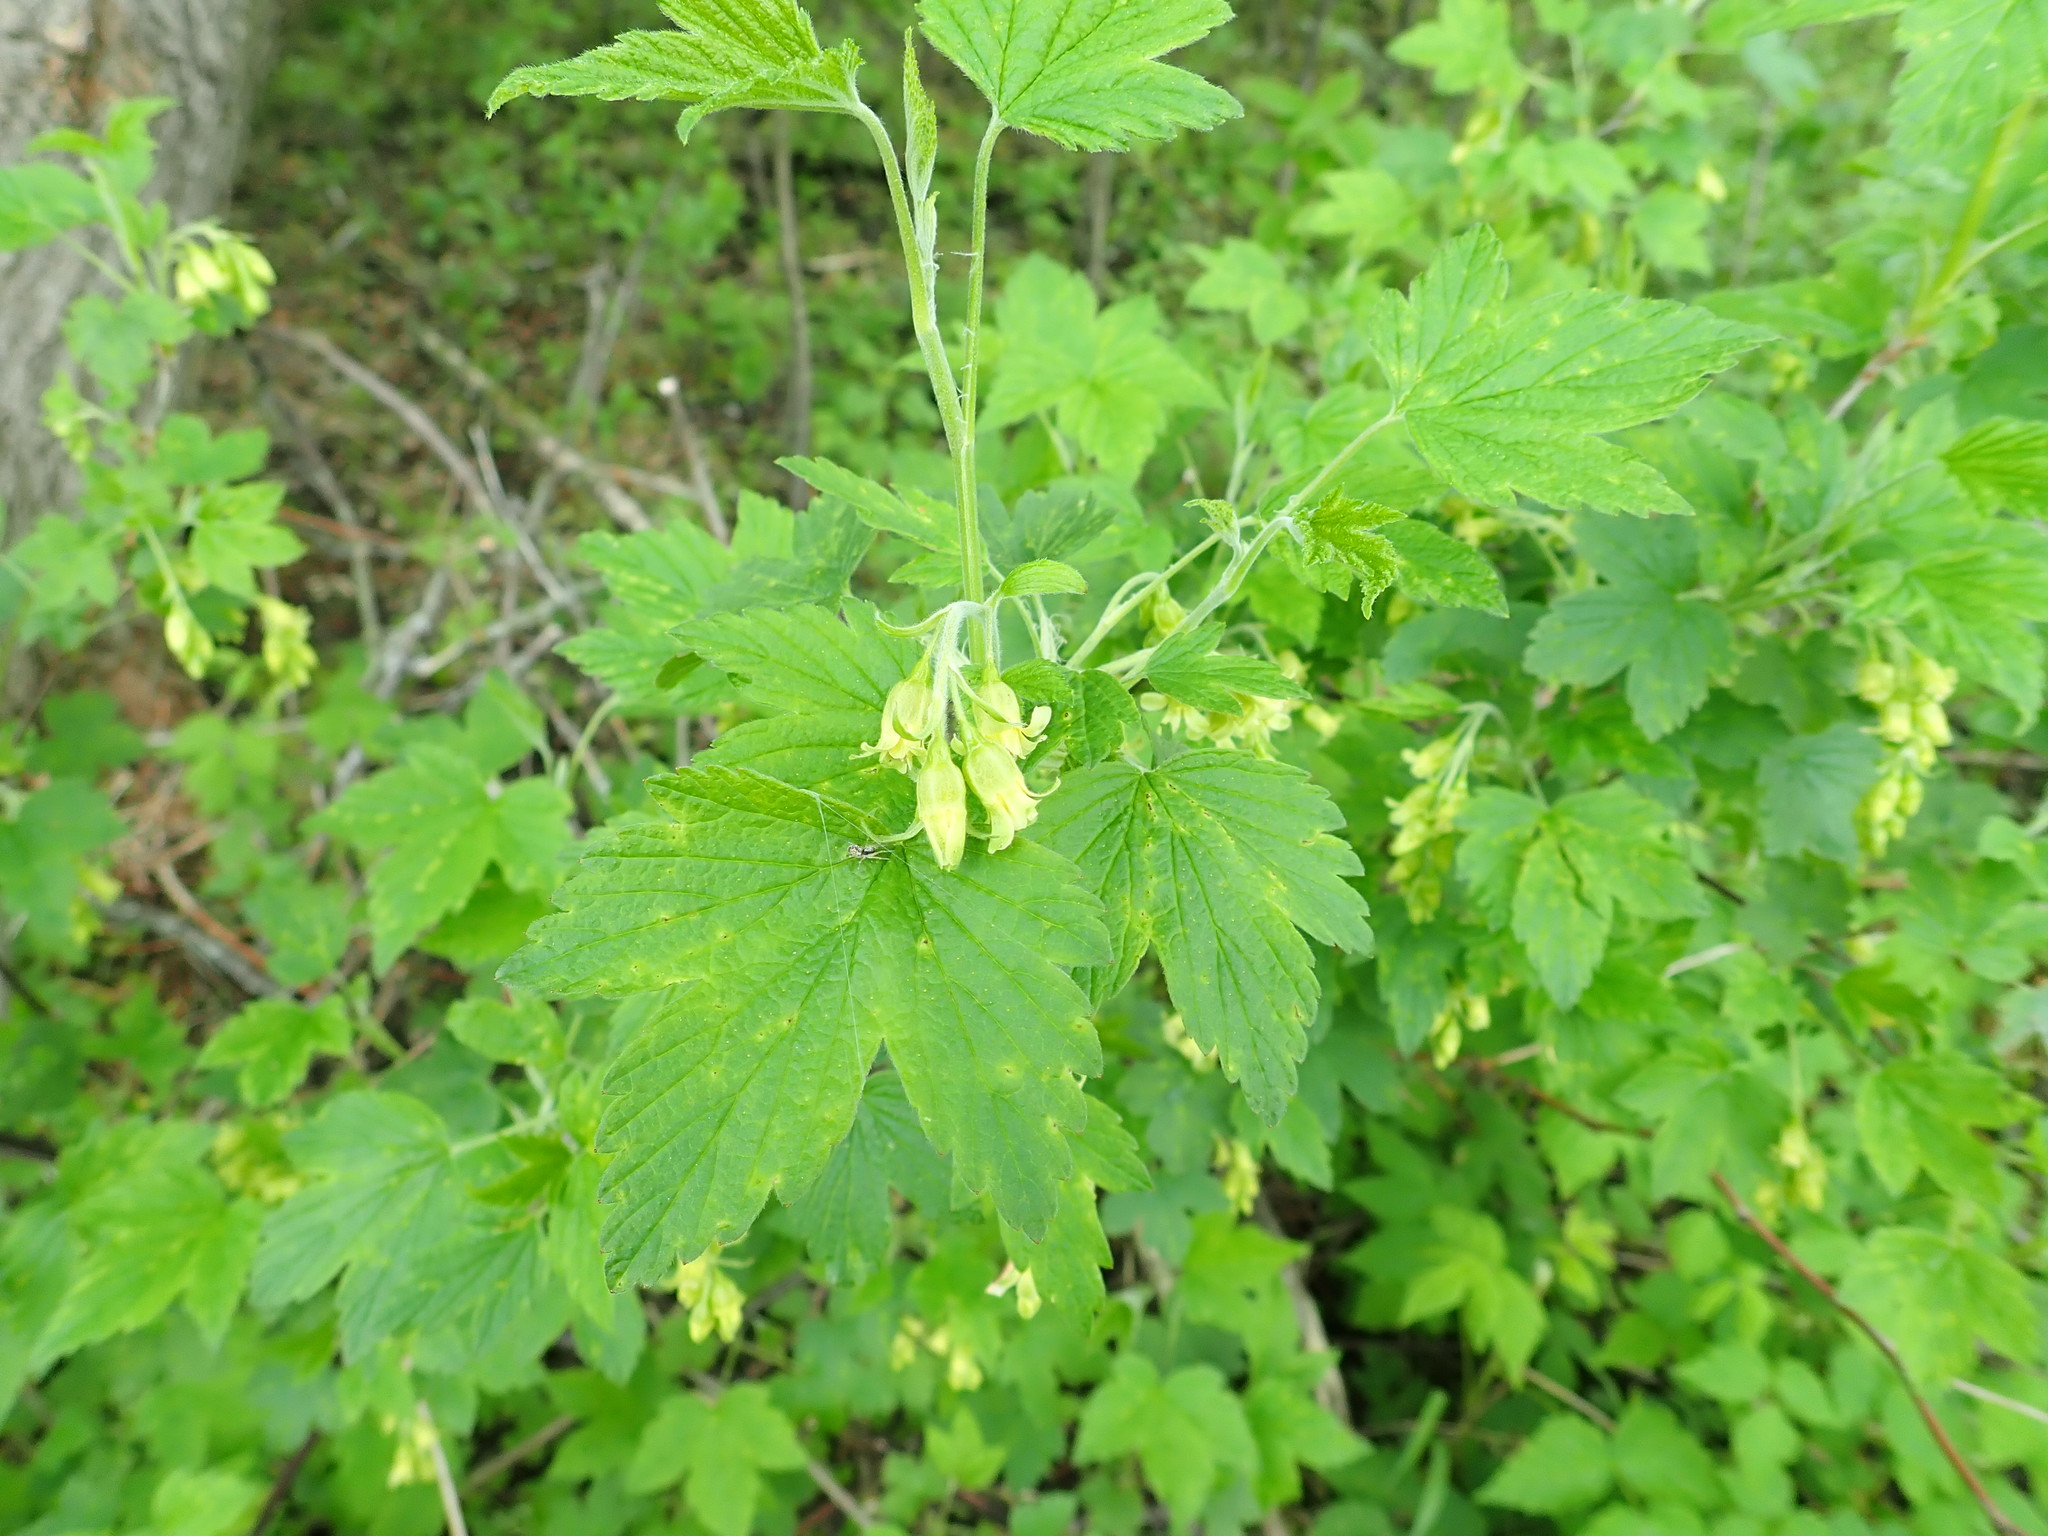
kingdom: Plantae
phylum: Tracheophyta
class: Magnoliopsida
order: Saxifragales
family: Grossulariaceae
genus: Ribes
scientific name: Ribes americanum
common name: American black currant
